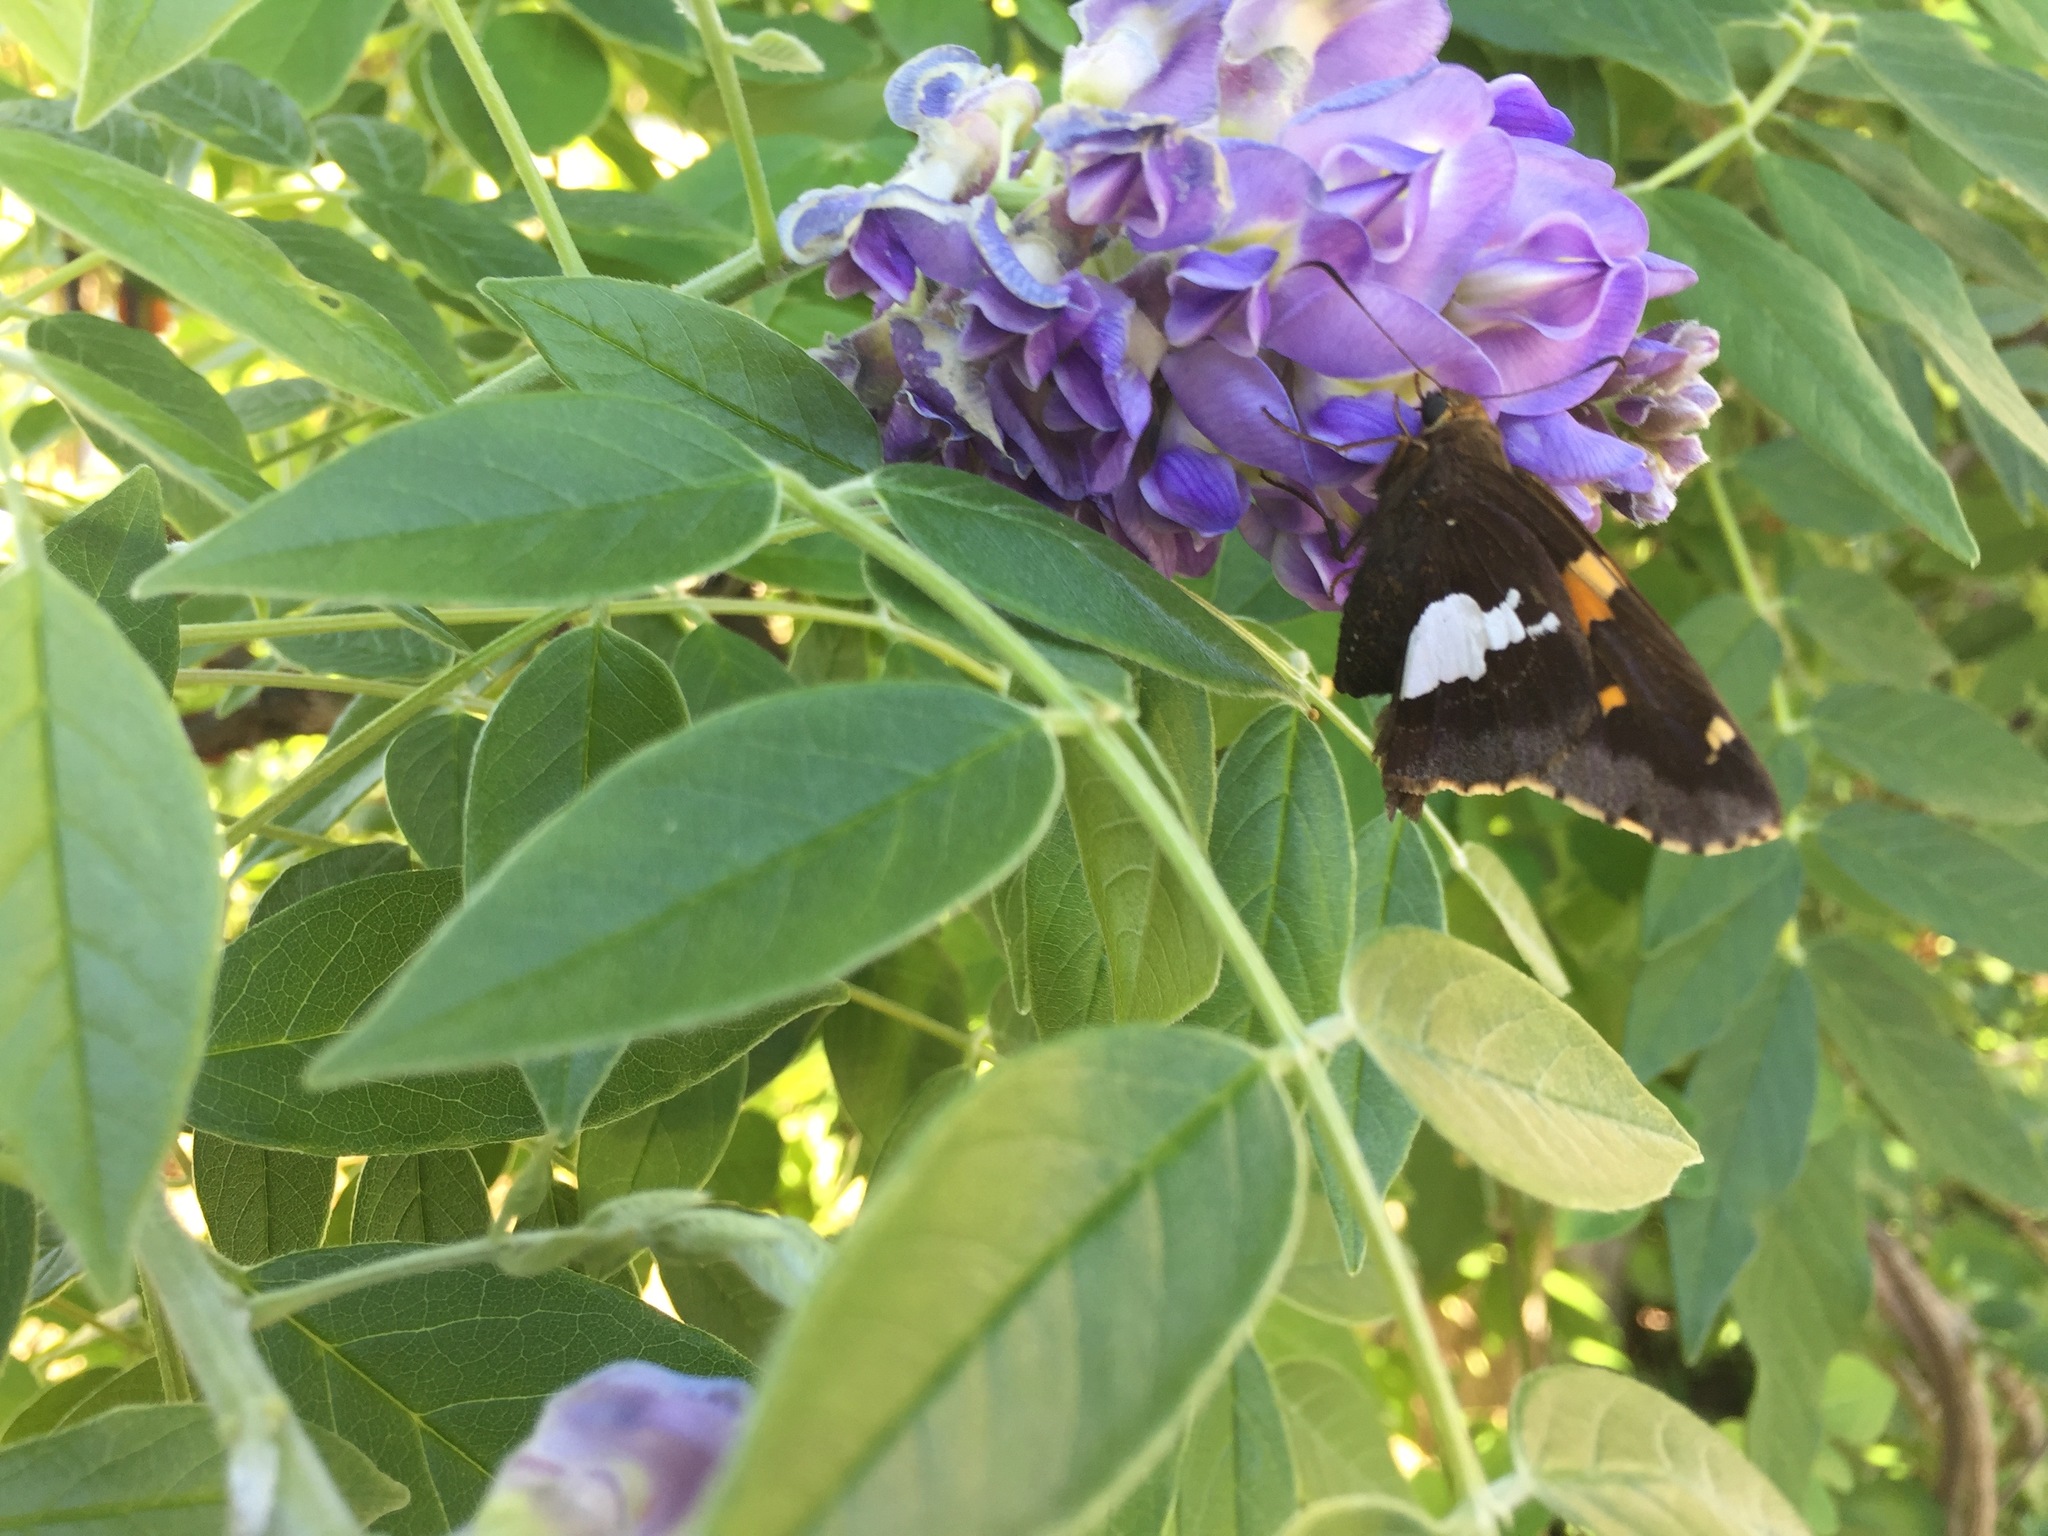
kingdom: Animalia
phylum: Arthropoda
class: Insecta
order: Lepidoptera
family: Hesperiidae
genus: Epargyreus
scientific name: Epargyreus clarus
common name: Silver-spotted skipper
